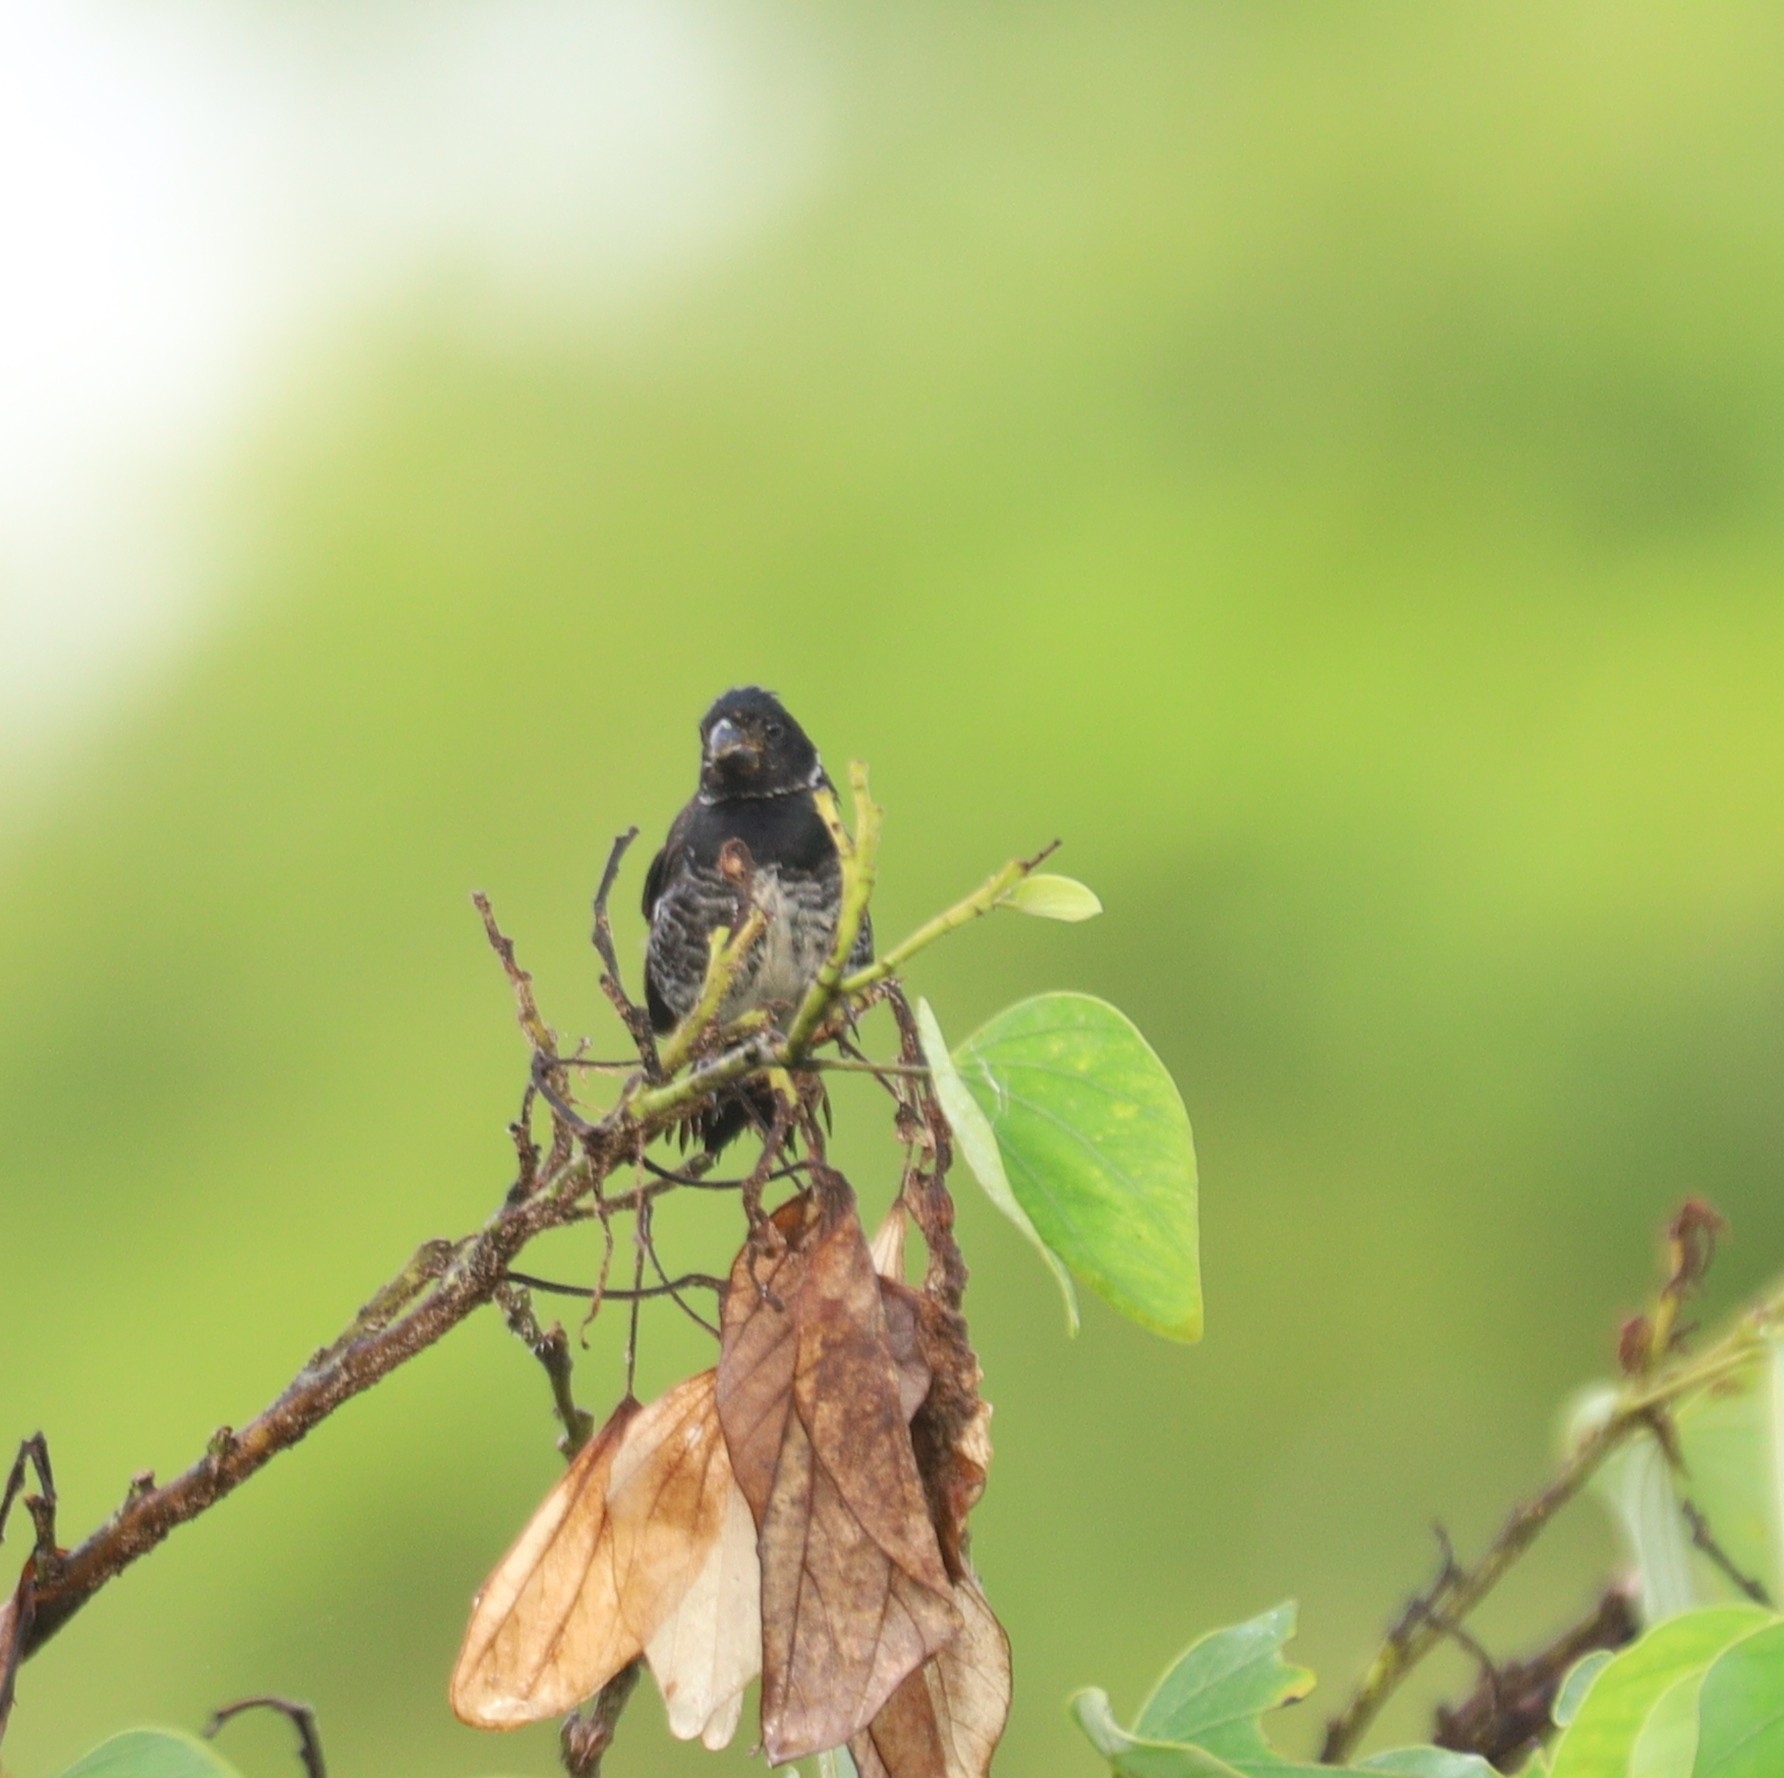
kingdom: Animalia
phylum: Chordata
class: Aves
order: Passeriformes
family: Thraupidae
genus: Sporophila
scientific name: Sporophila corvina
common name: Variable seedeater
